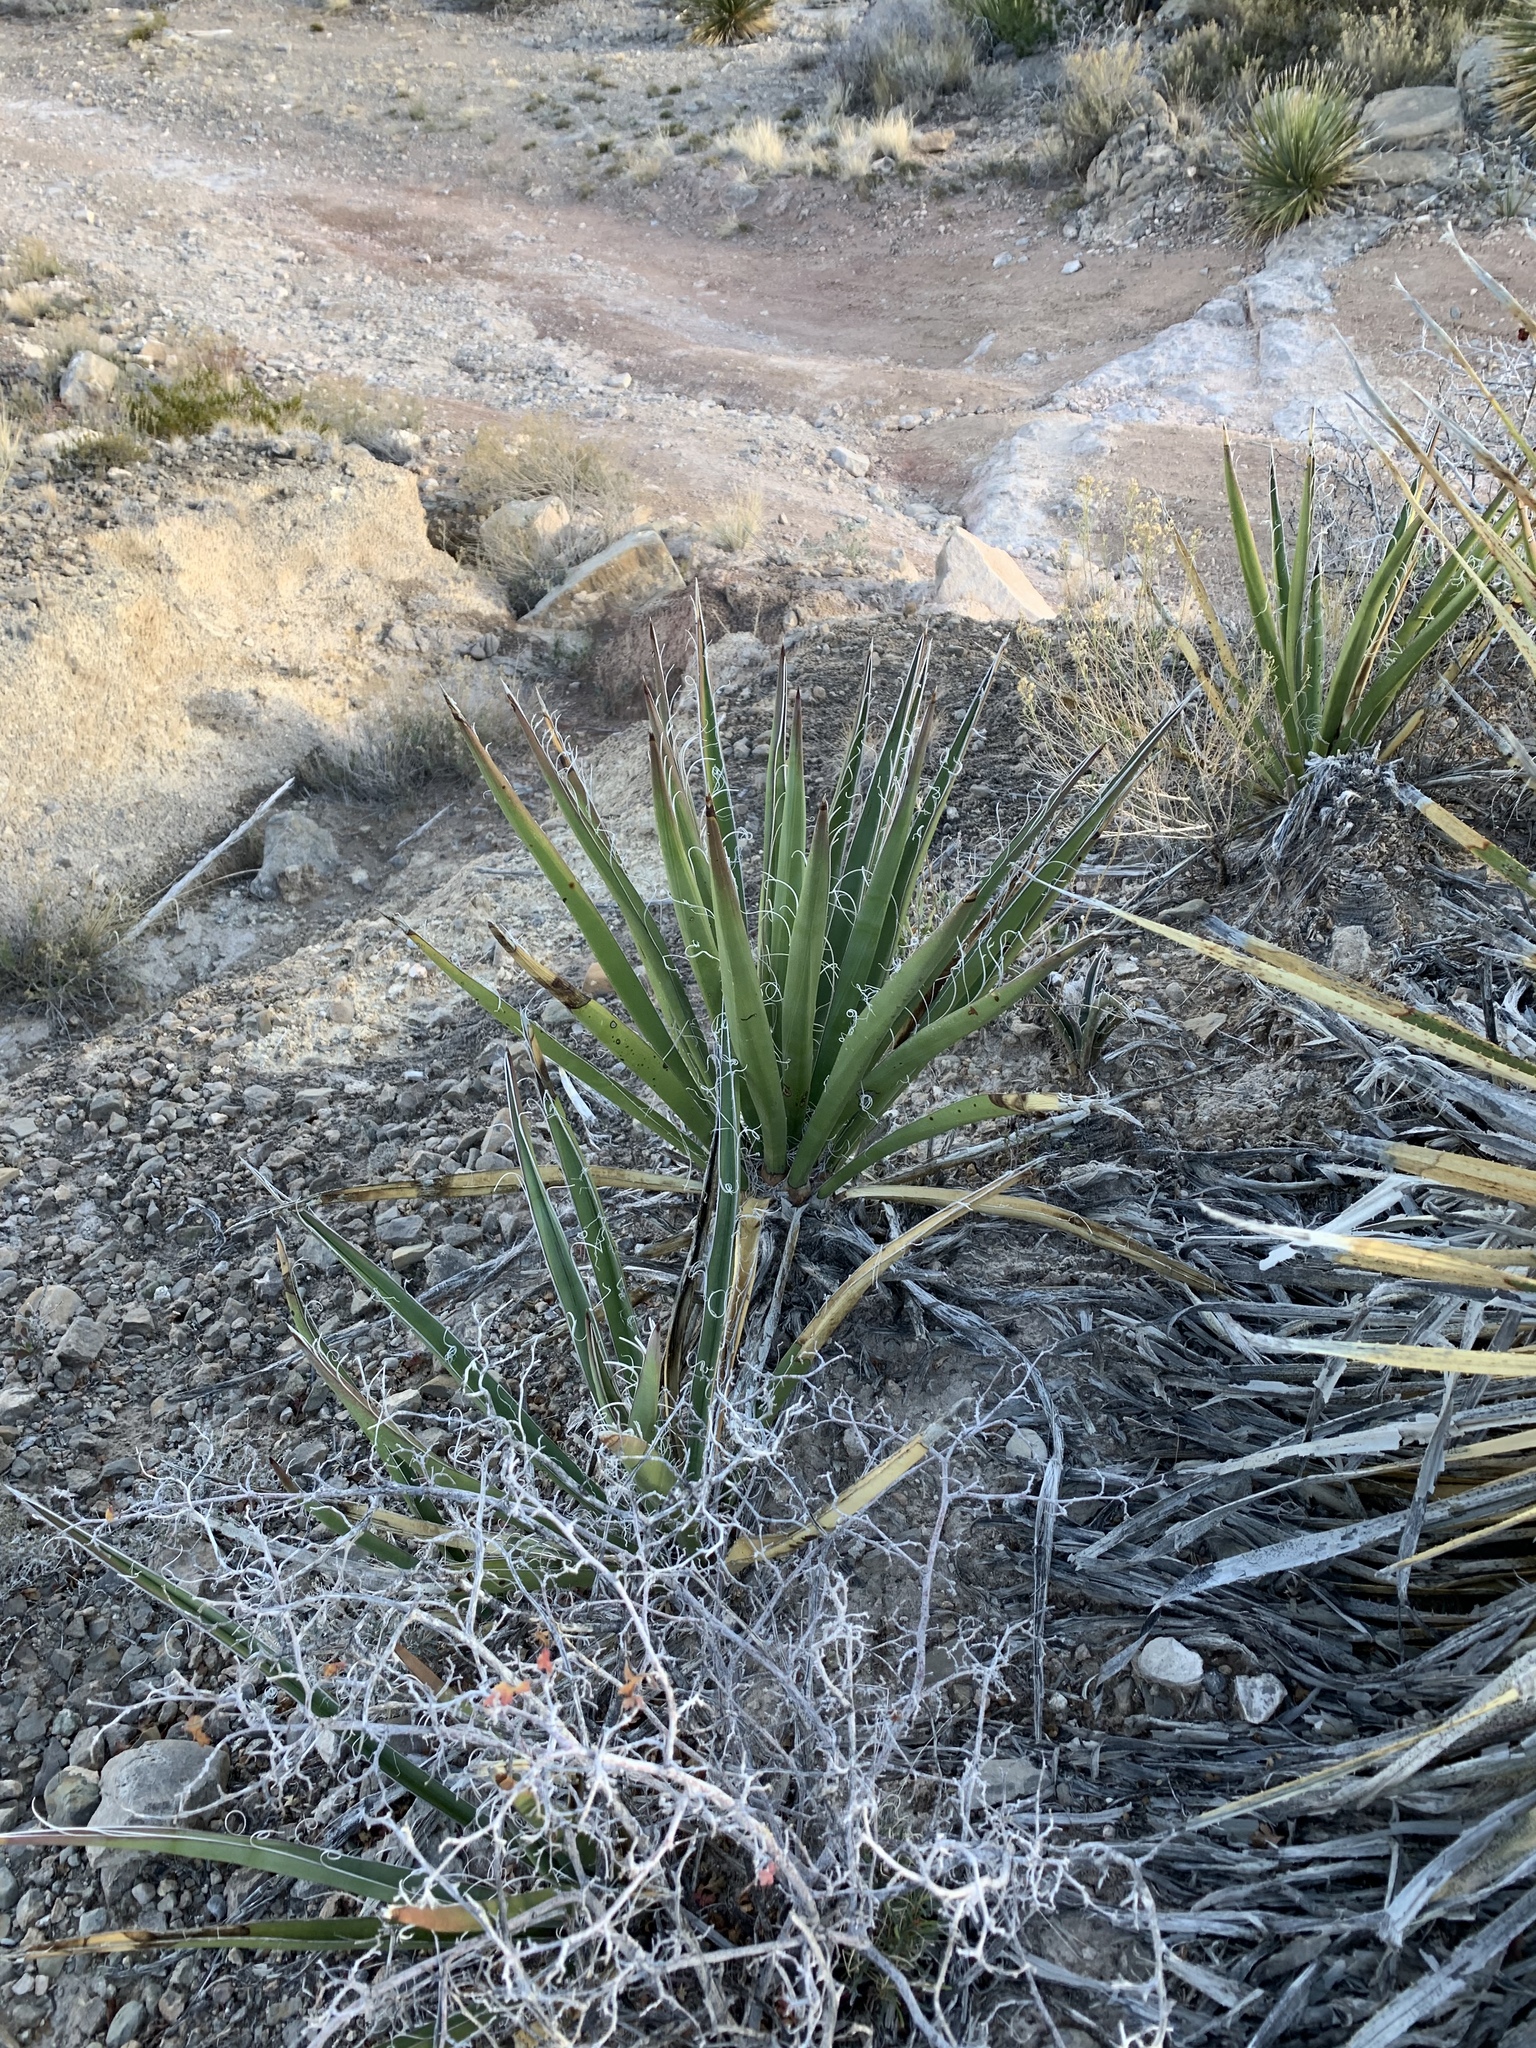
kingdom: Plantae
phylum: Tracheophyta
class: Liliopsida
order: Asparagales
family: Asparagaceae
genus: Yucca
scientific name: Yucca baccata
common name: Banana yucca
